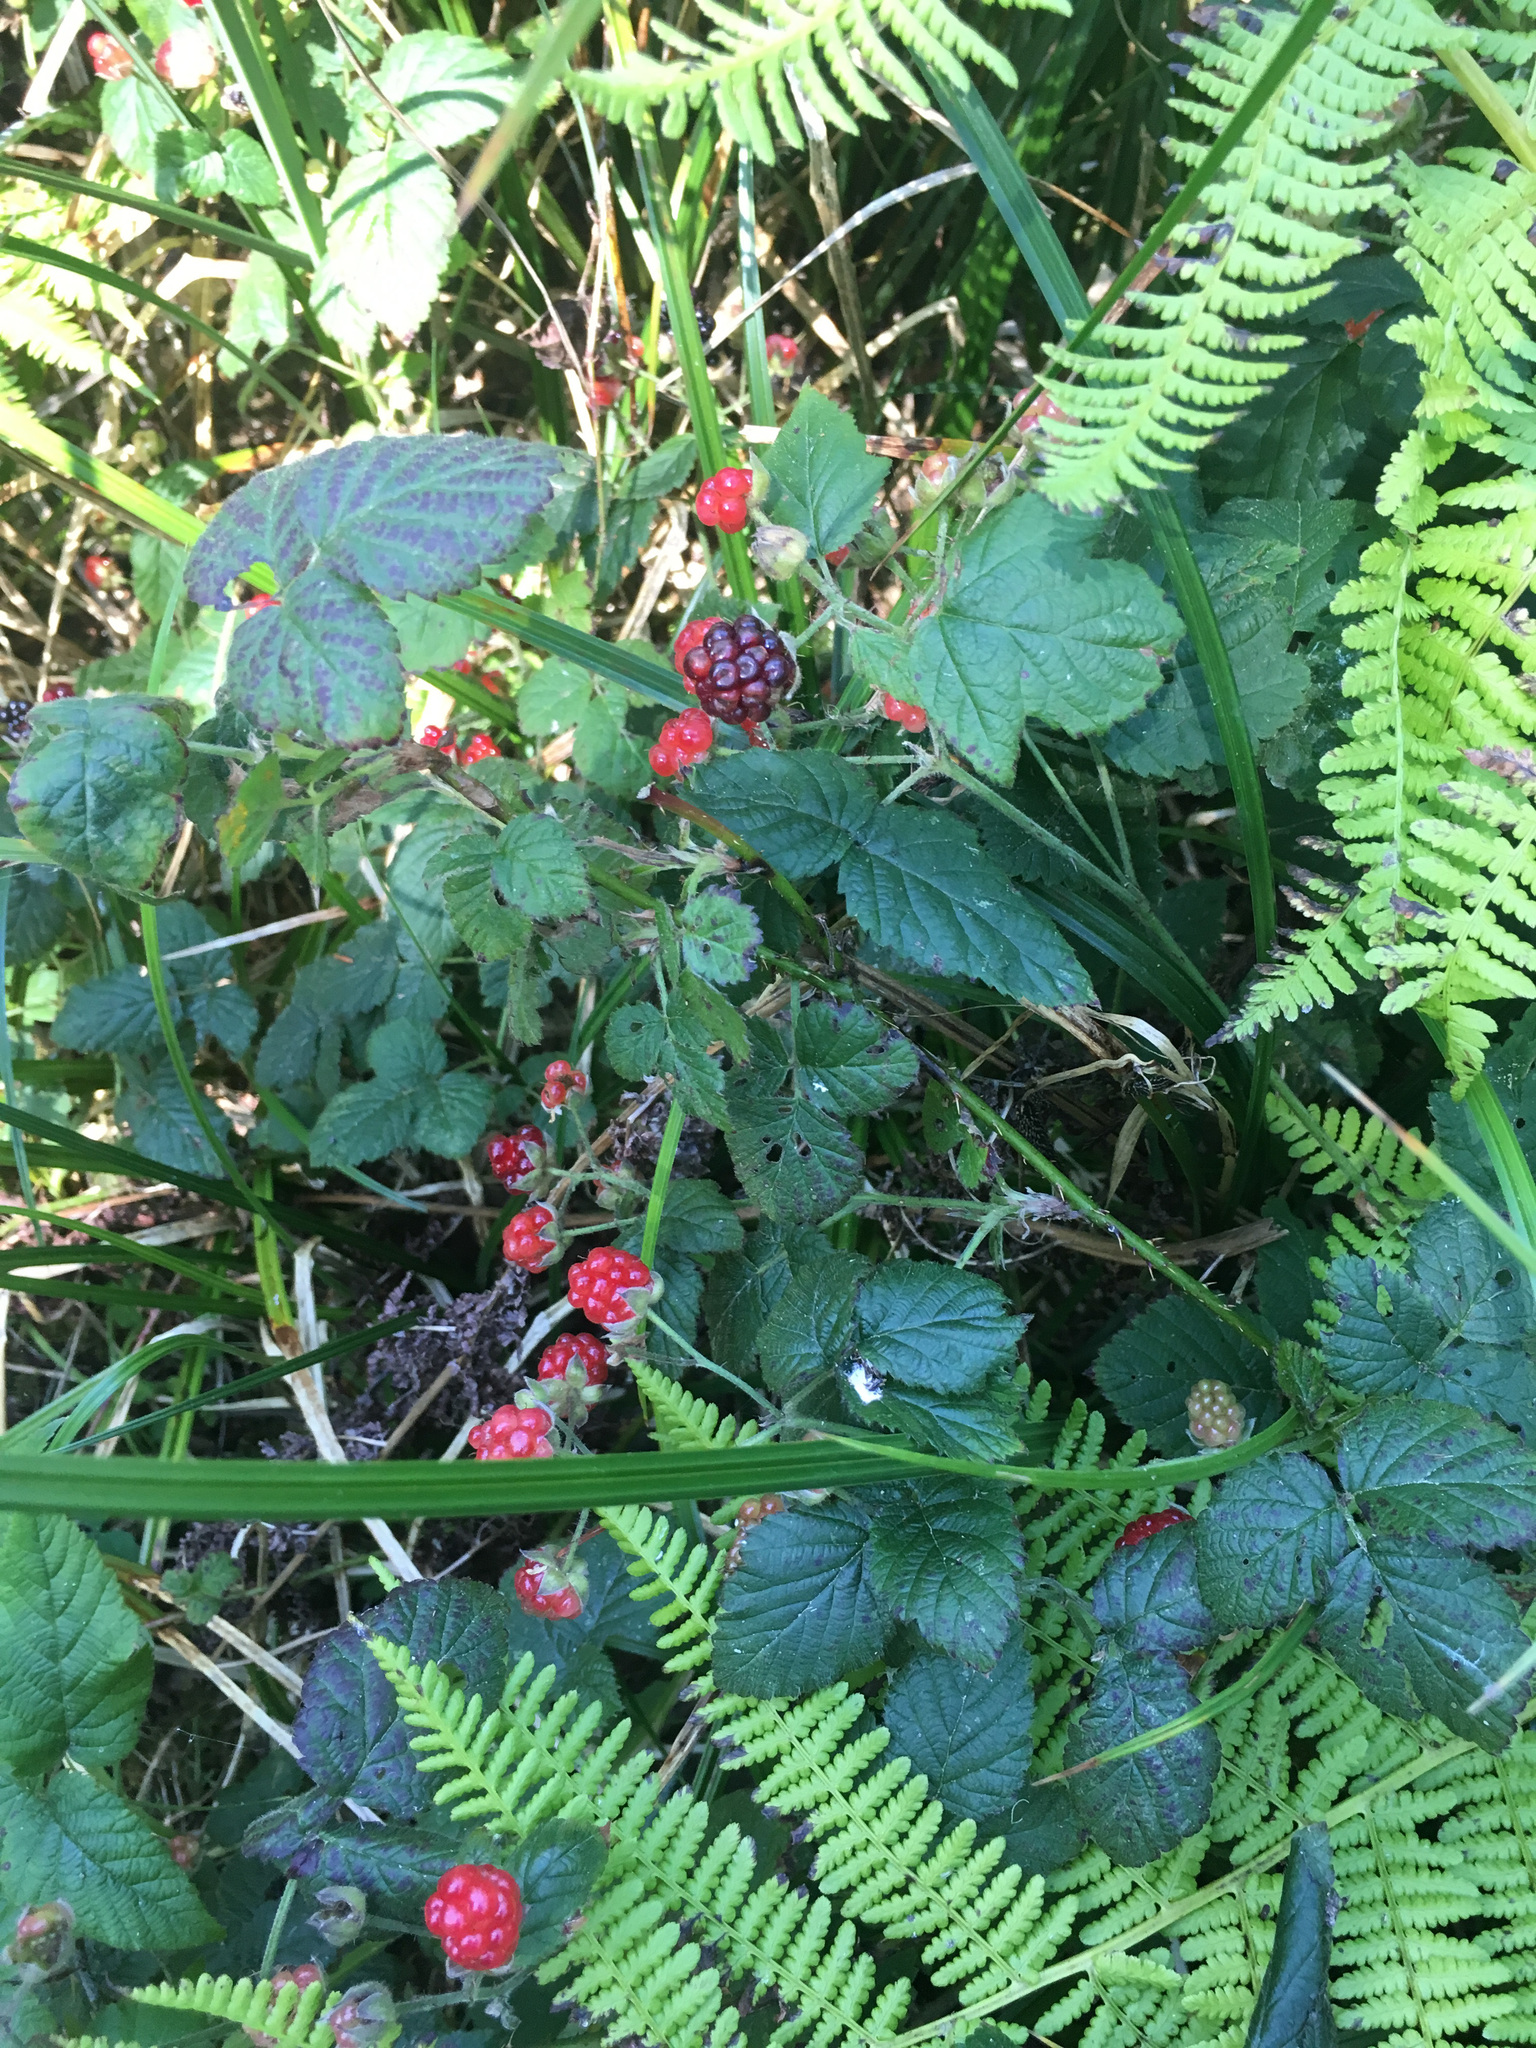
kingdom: Plantae
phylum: Tracheophyta
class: Magnoliopsida
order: Rosales
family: Rosaceae
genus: Rubus
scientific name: Rubus ursinus
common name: Pacific blackberry
